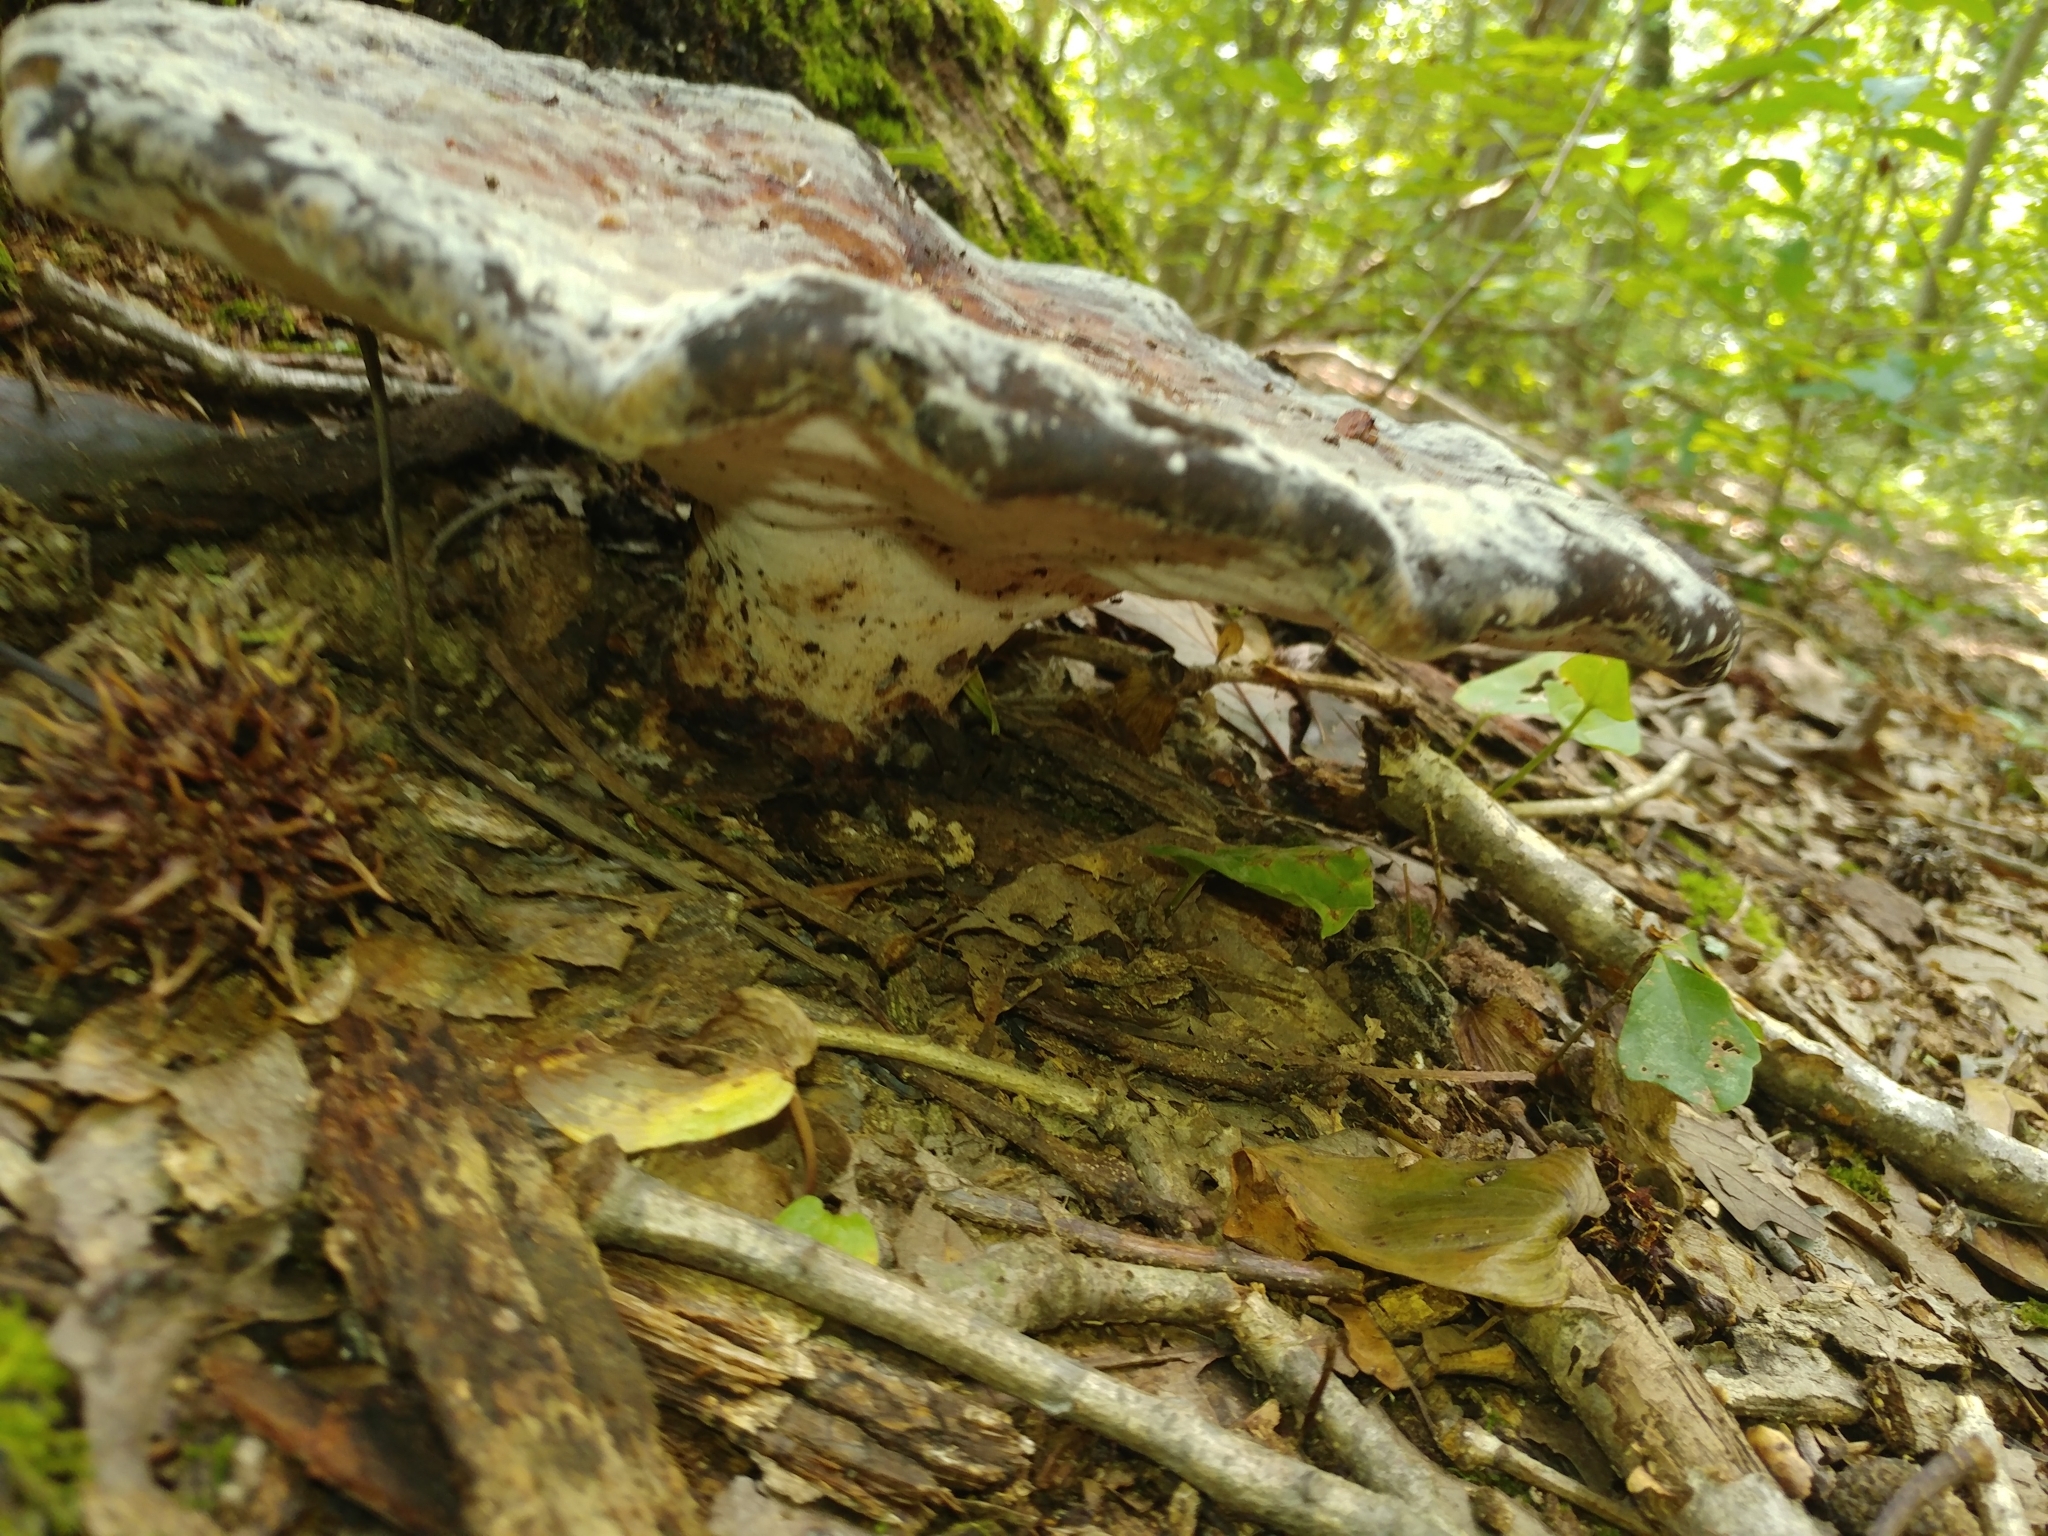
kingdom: Fungi
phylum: Basidiomycota
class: Agaricomycetes
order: Polyporales
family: Laetiporaceae
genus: Berkcurtia
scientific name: Berkcurtia persicina
